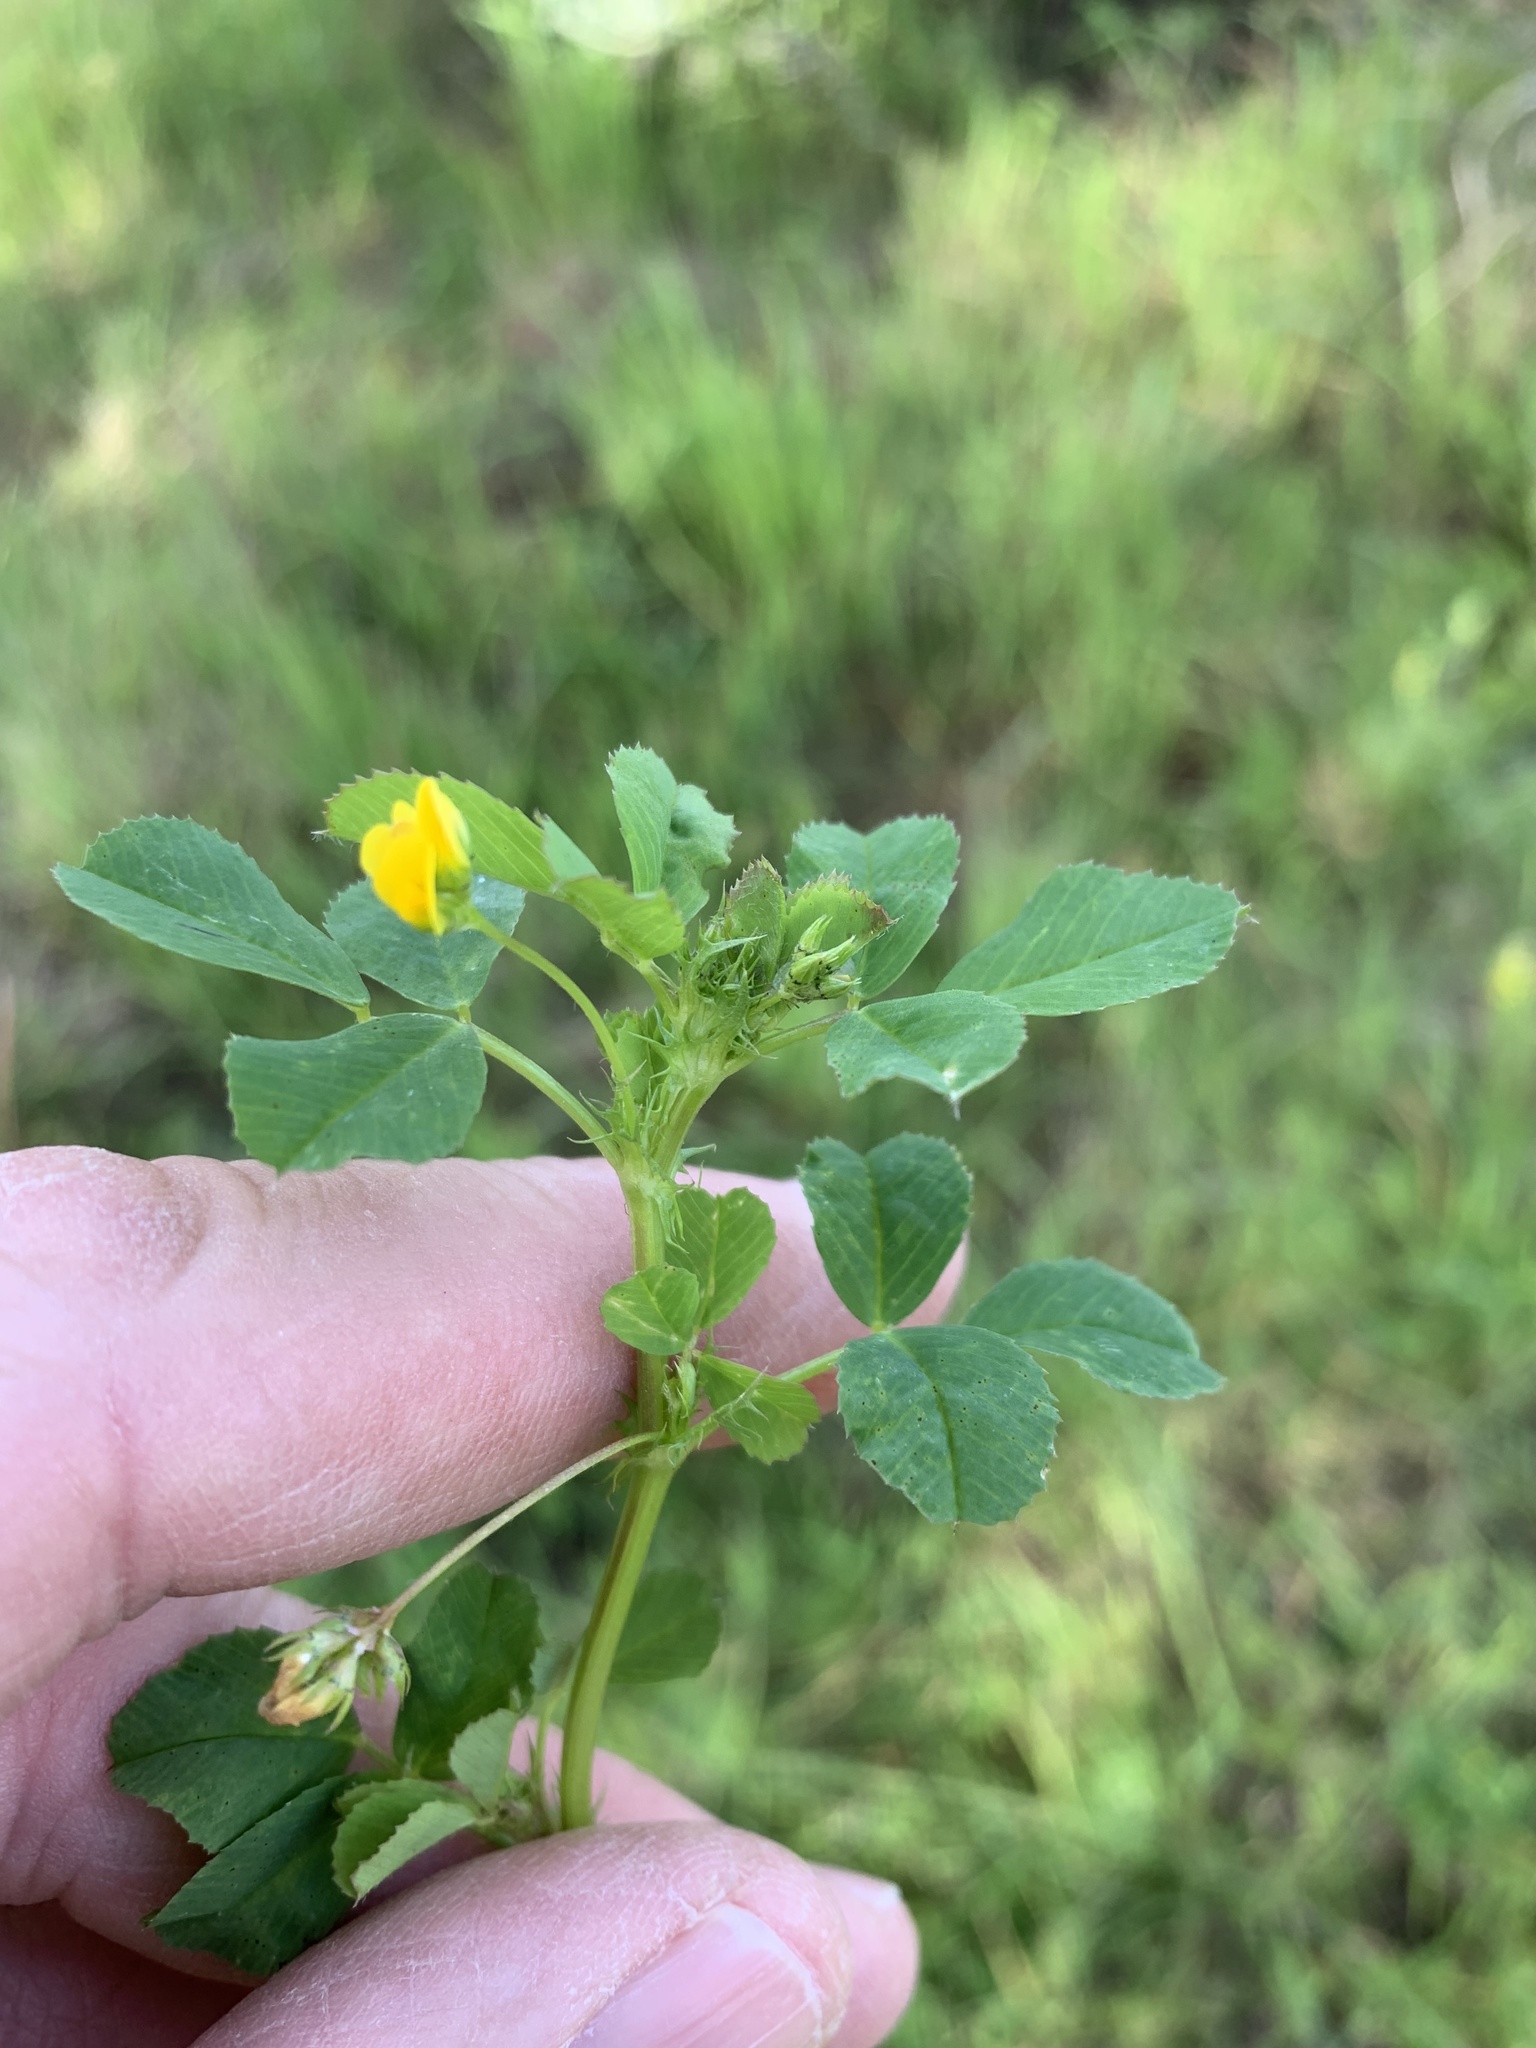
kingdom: Plantae
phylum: Tracheophyta
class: Magnoliopsida
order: Fabales
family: Fabaceae
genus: Medicago
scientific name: Medicago polymorpha
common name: Burclover
